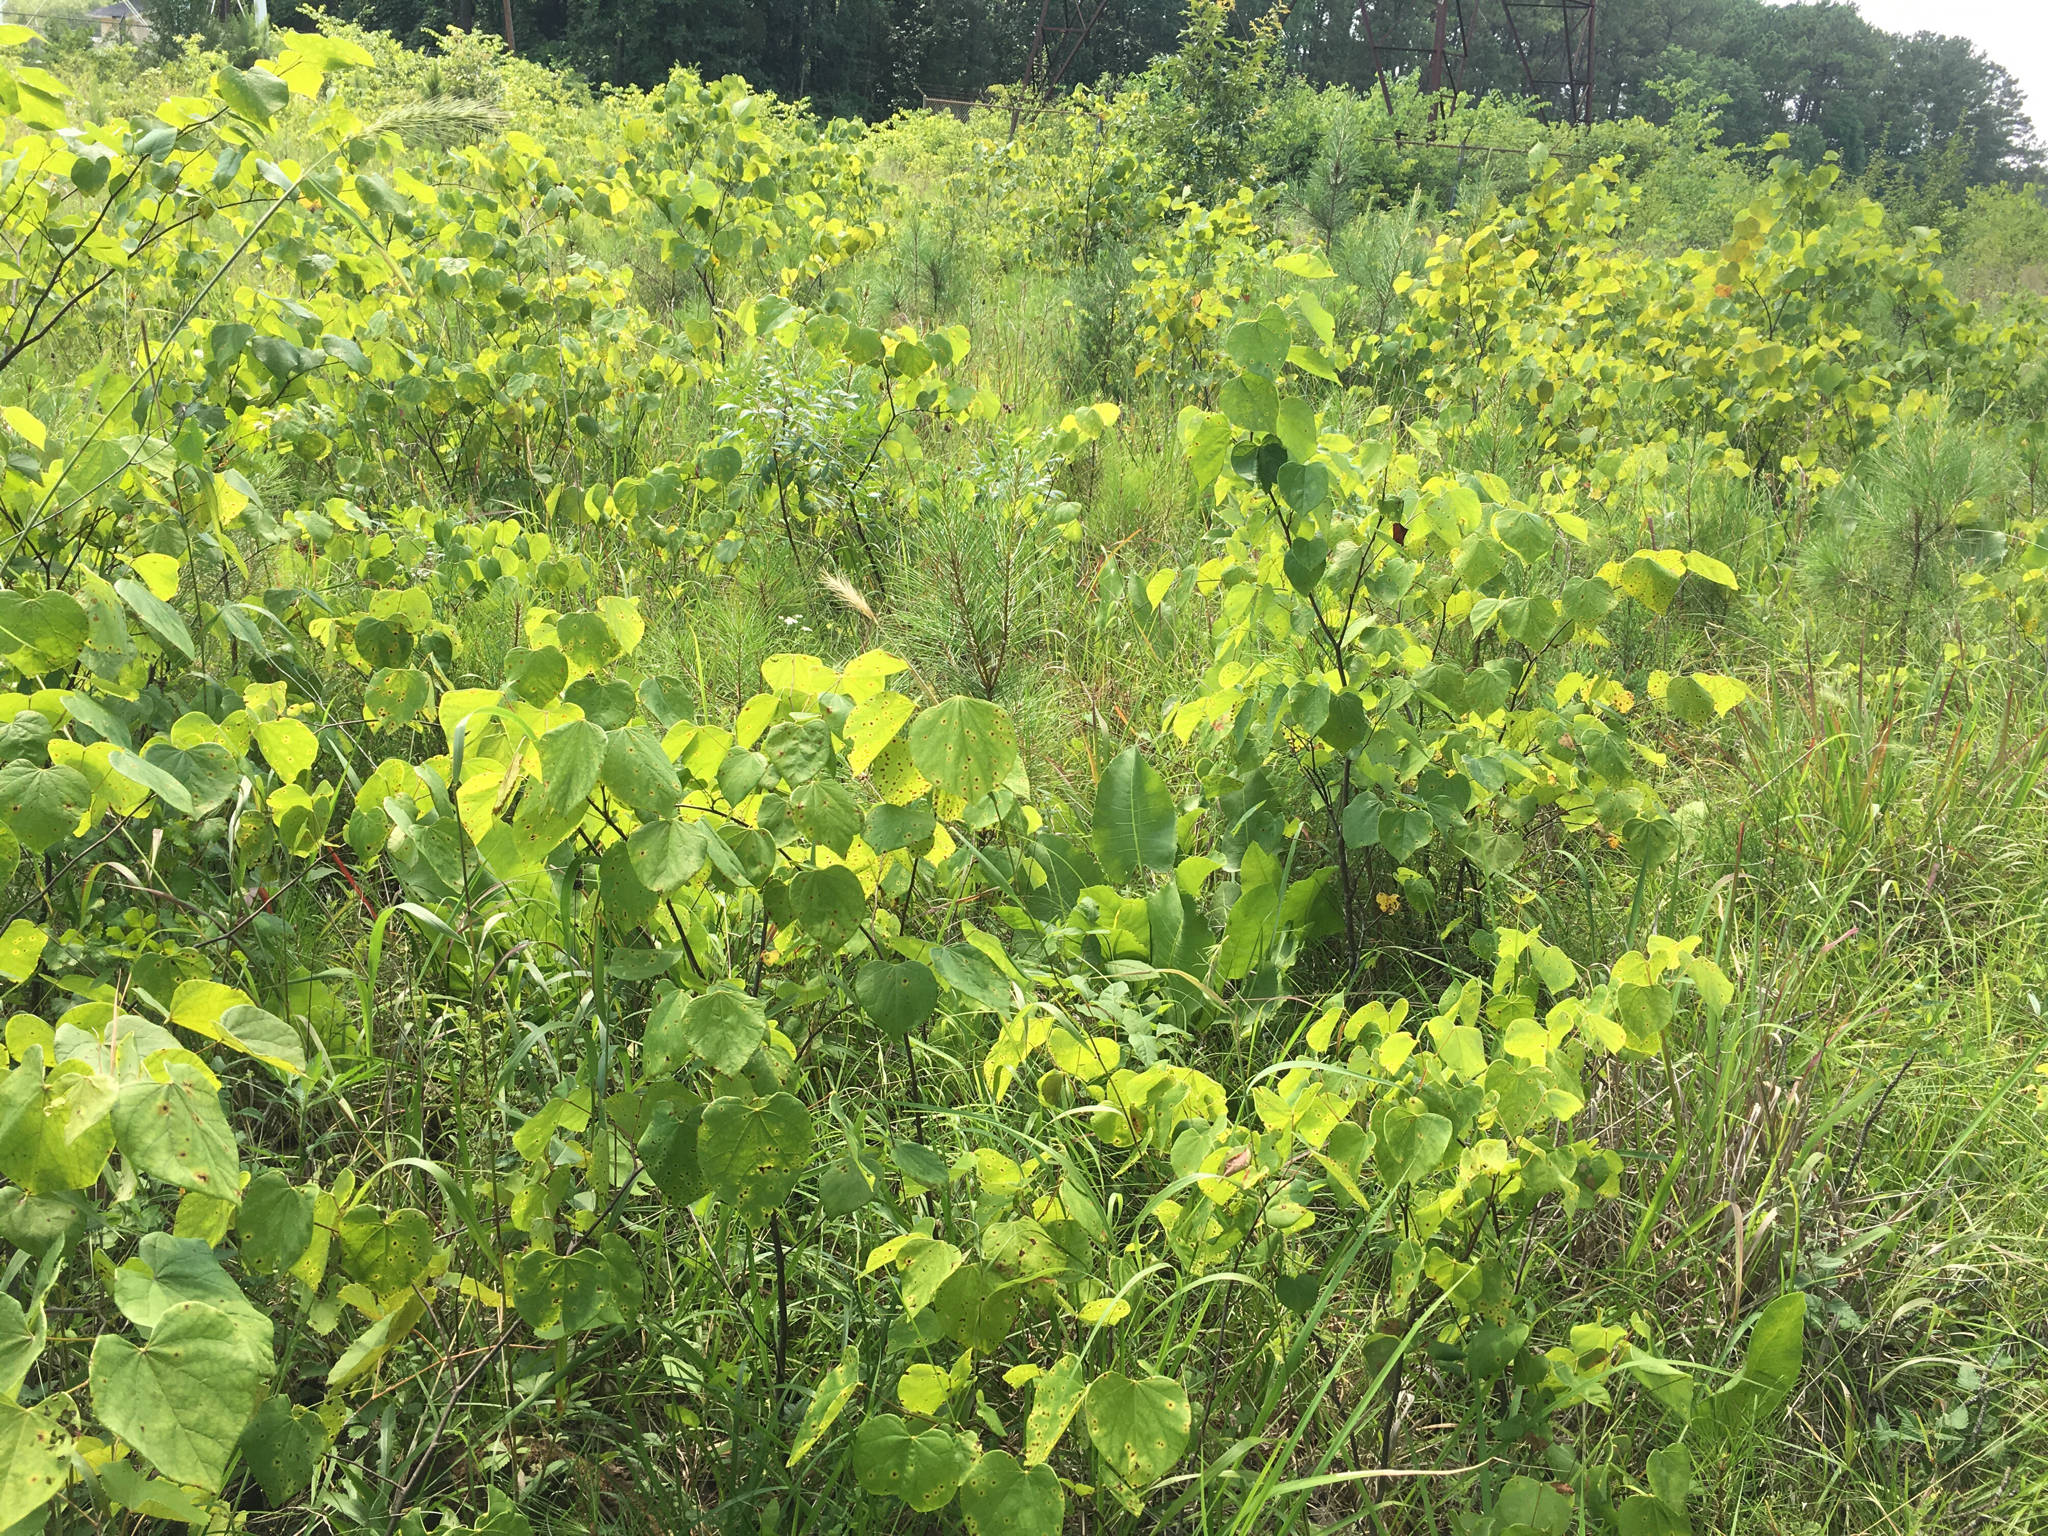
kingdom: Plantae
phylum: Tracheophyta
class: Magnoliopsida
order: Fabales
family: Fabaceae
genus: Cercis
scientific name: Cercis canadensis
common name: Eastern redbud
